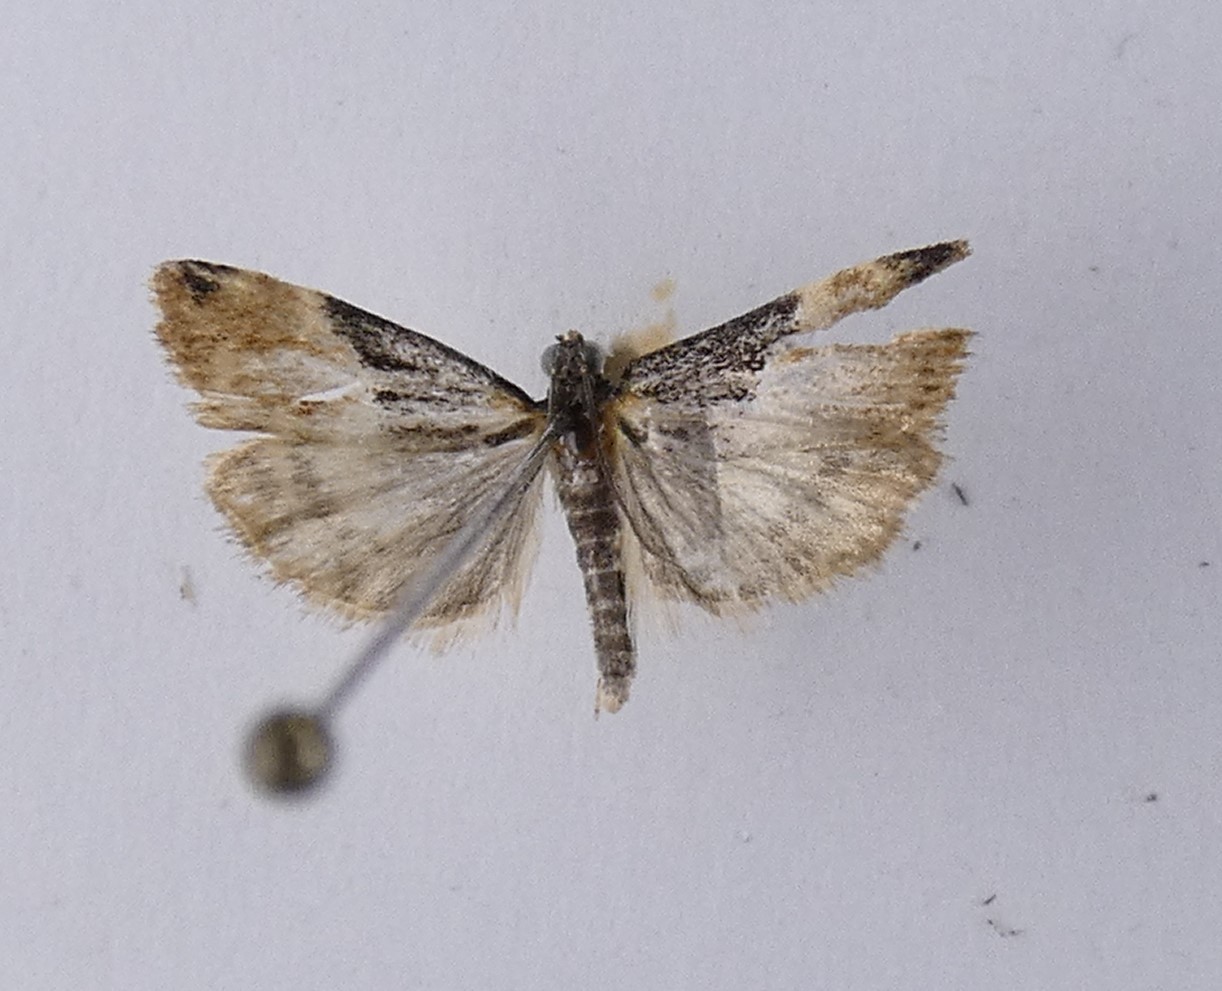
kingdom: Animalia
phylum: Arthropoda
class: Insecta
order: Lepidoptera
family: Crambidae
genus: Eudonia
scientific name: Eudonia chlamydota
